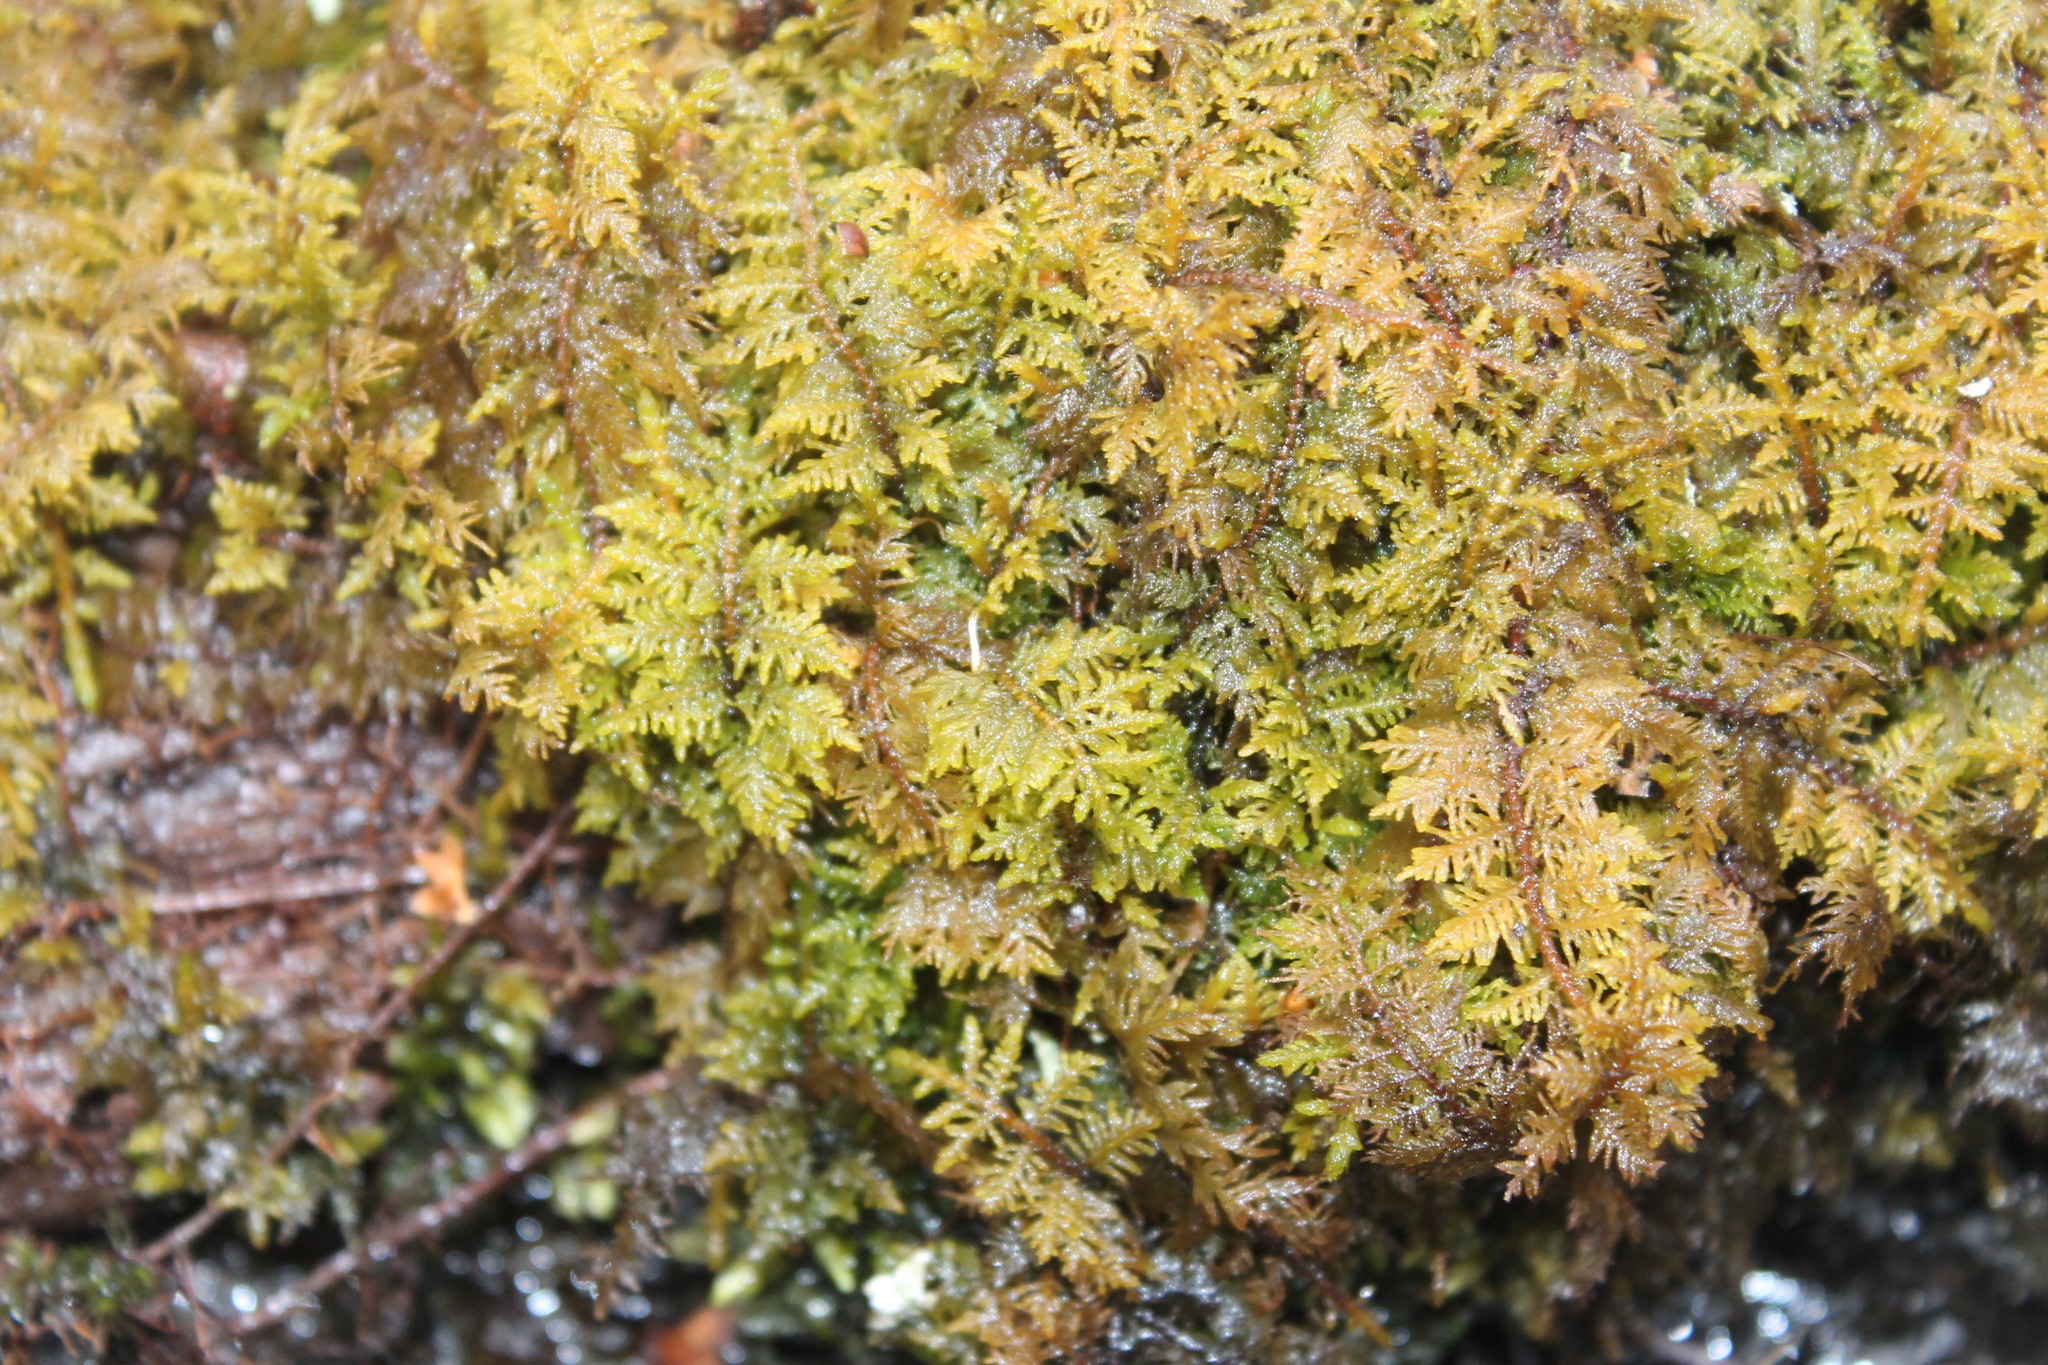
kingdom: Plantae
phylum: Bryophyta
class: Bryopsida
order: Hypnales
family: Thuidiaceae
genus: Thuidium
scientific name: Thuidium delicatulum
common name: Delicate fern moss
